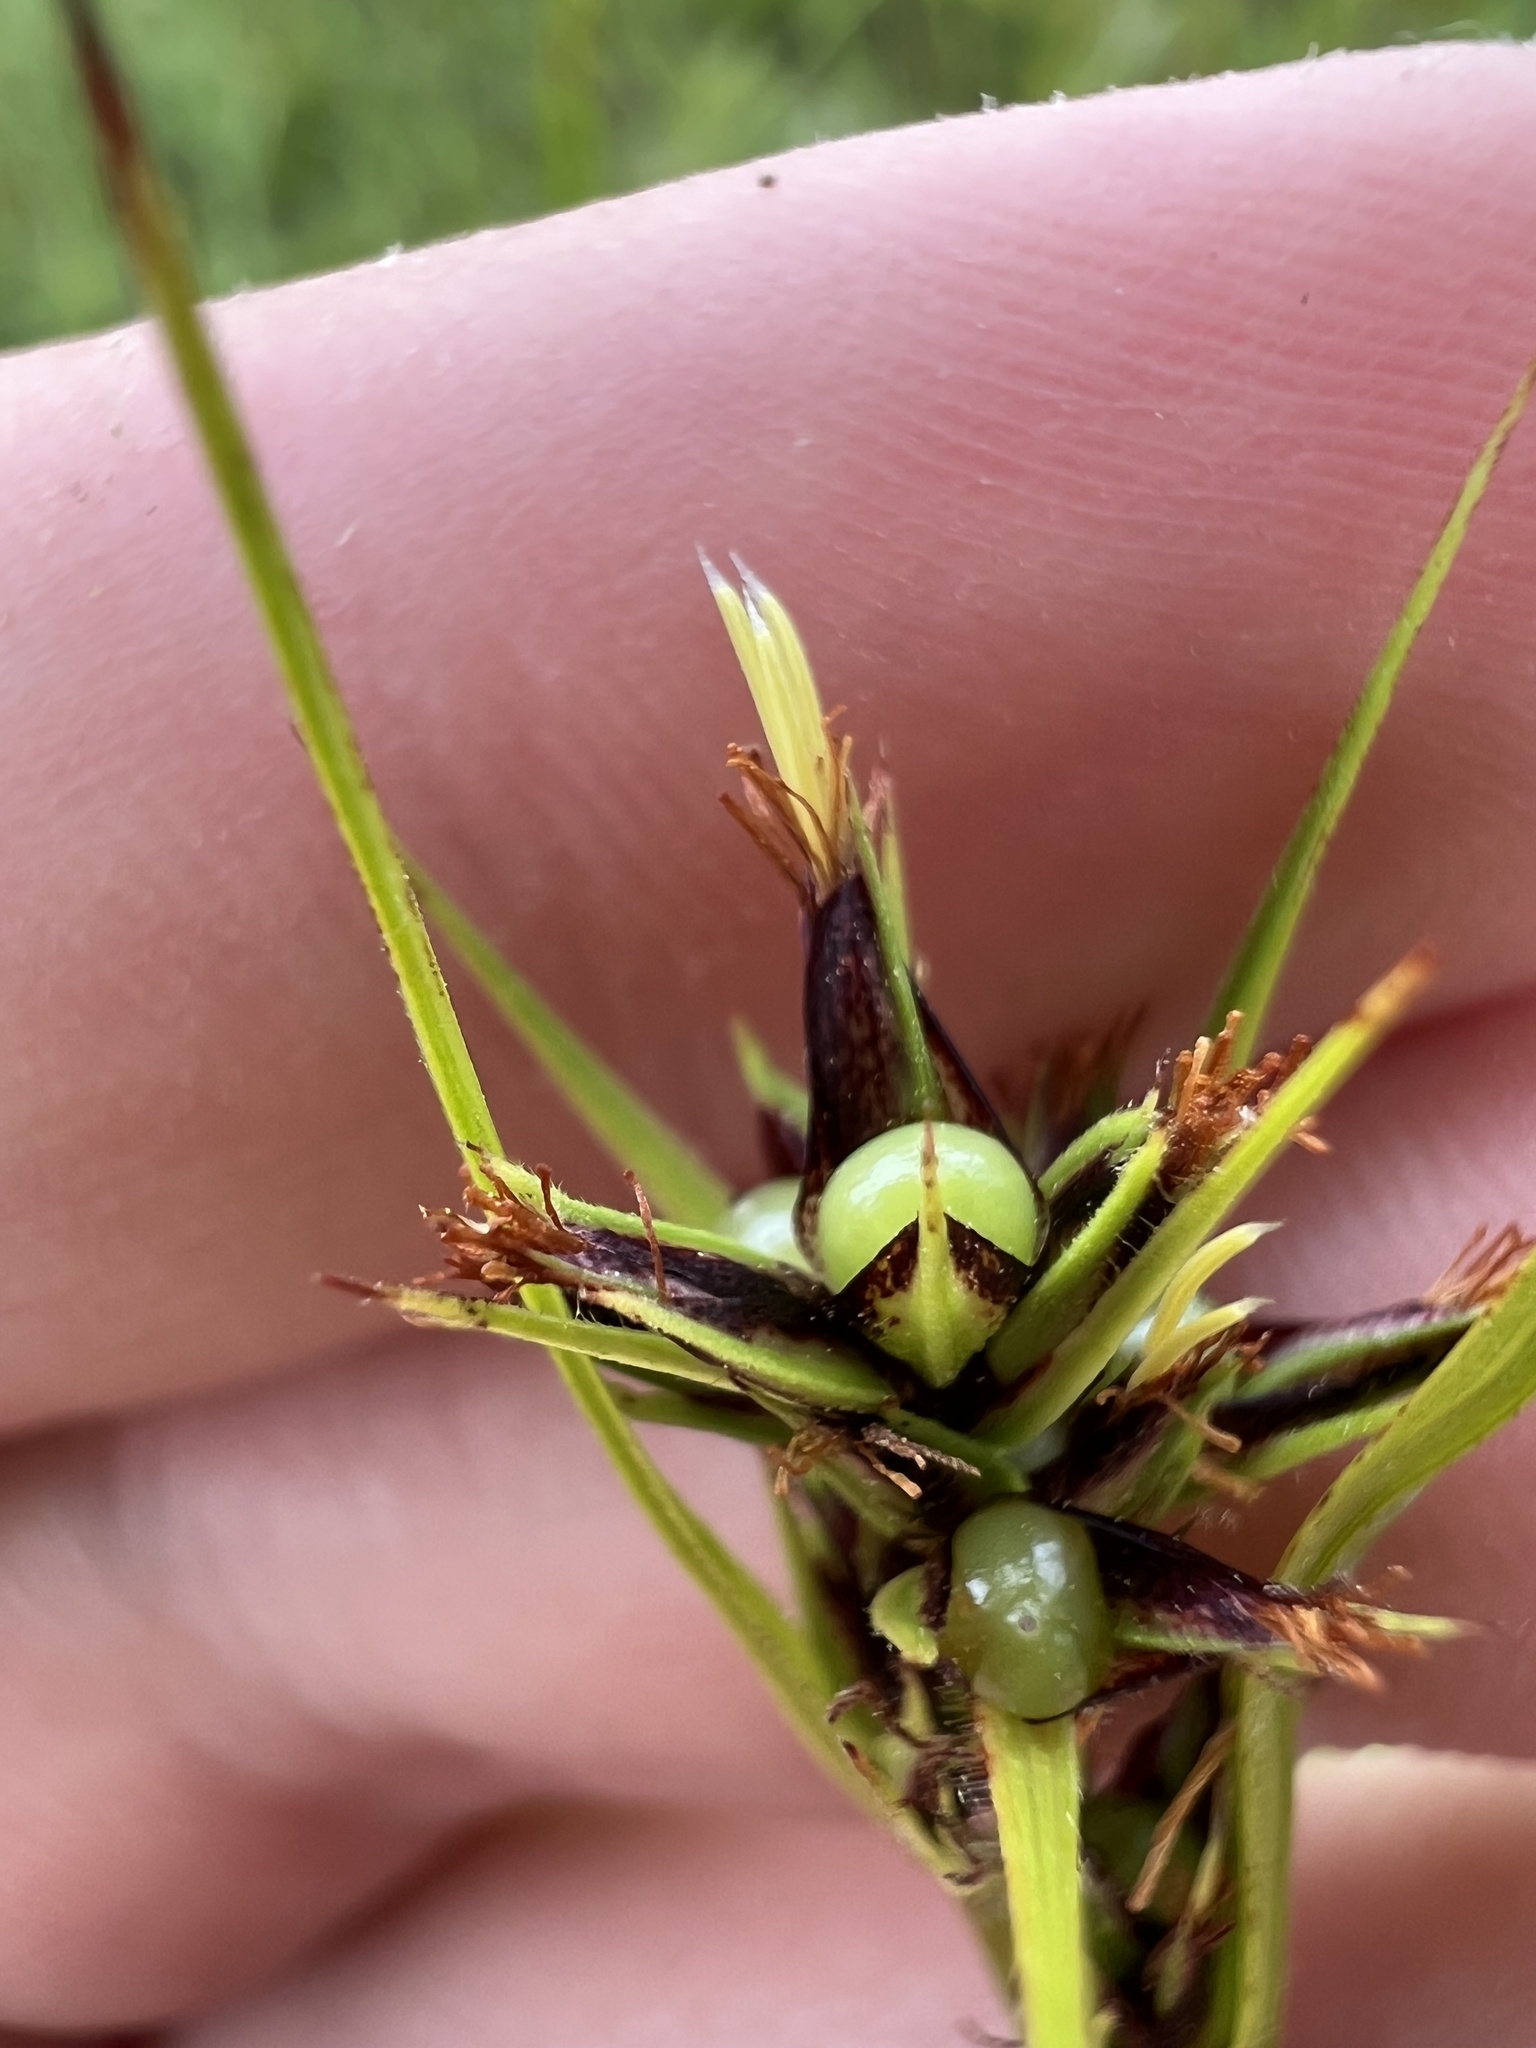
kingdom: Plantae
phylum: Tracheophyta
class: Liliopsida
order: Poales
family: Cyperaceae
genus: Scleria
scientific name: Scleria triglomerata
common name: Whip nutrush
